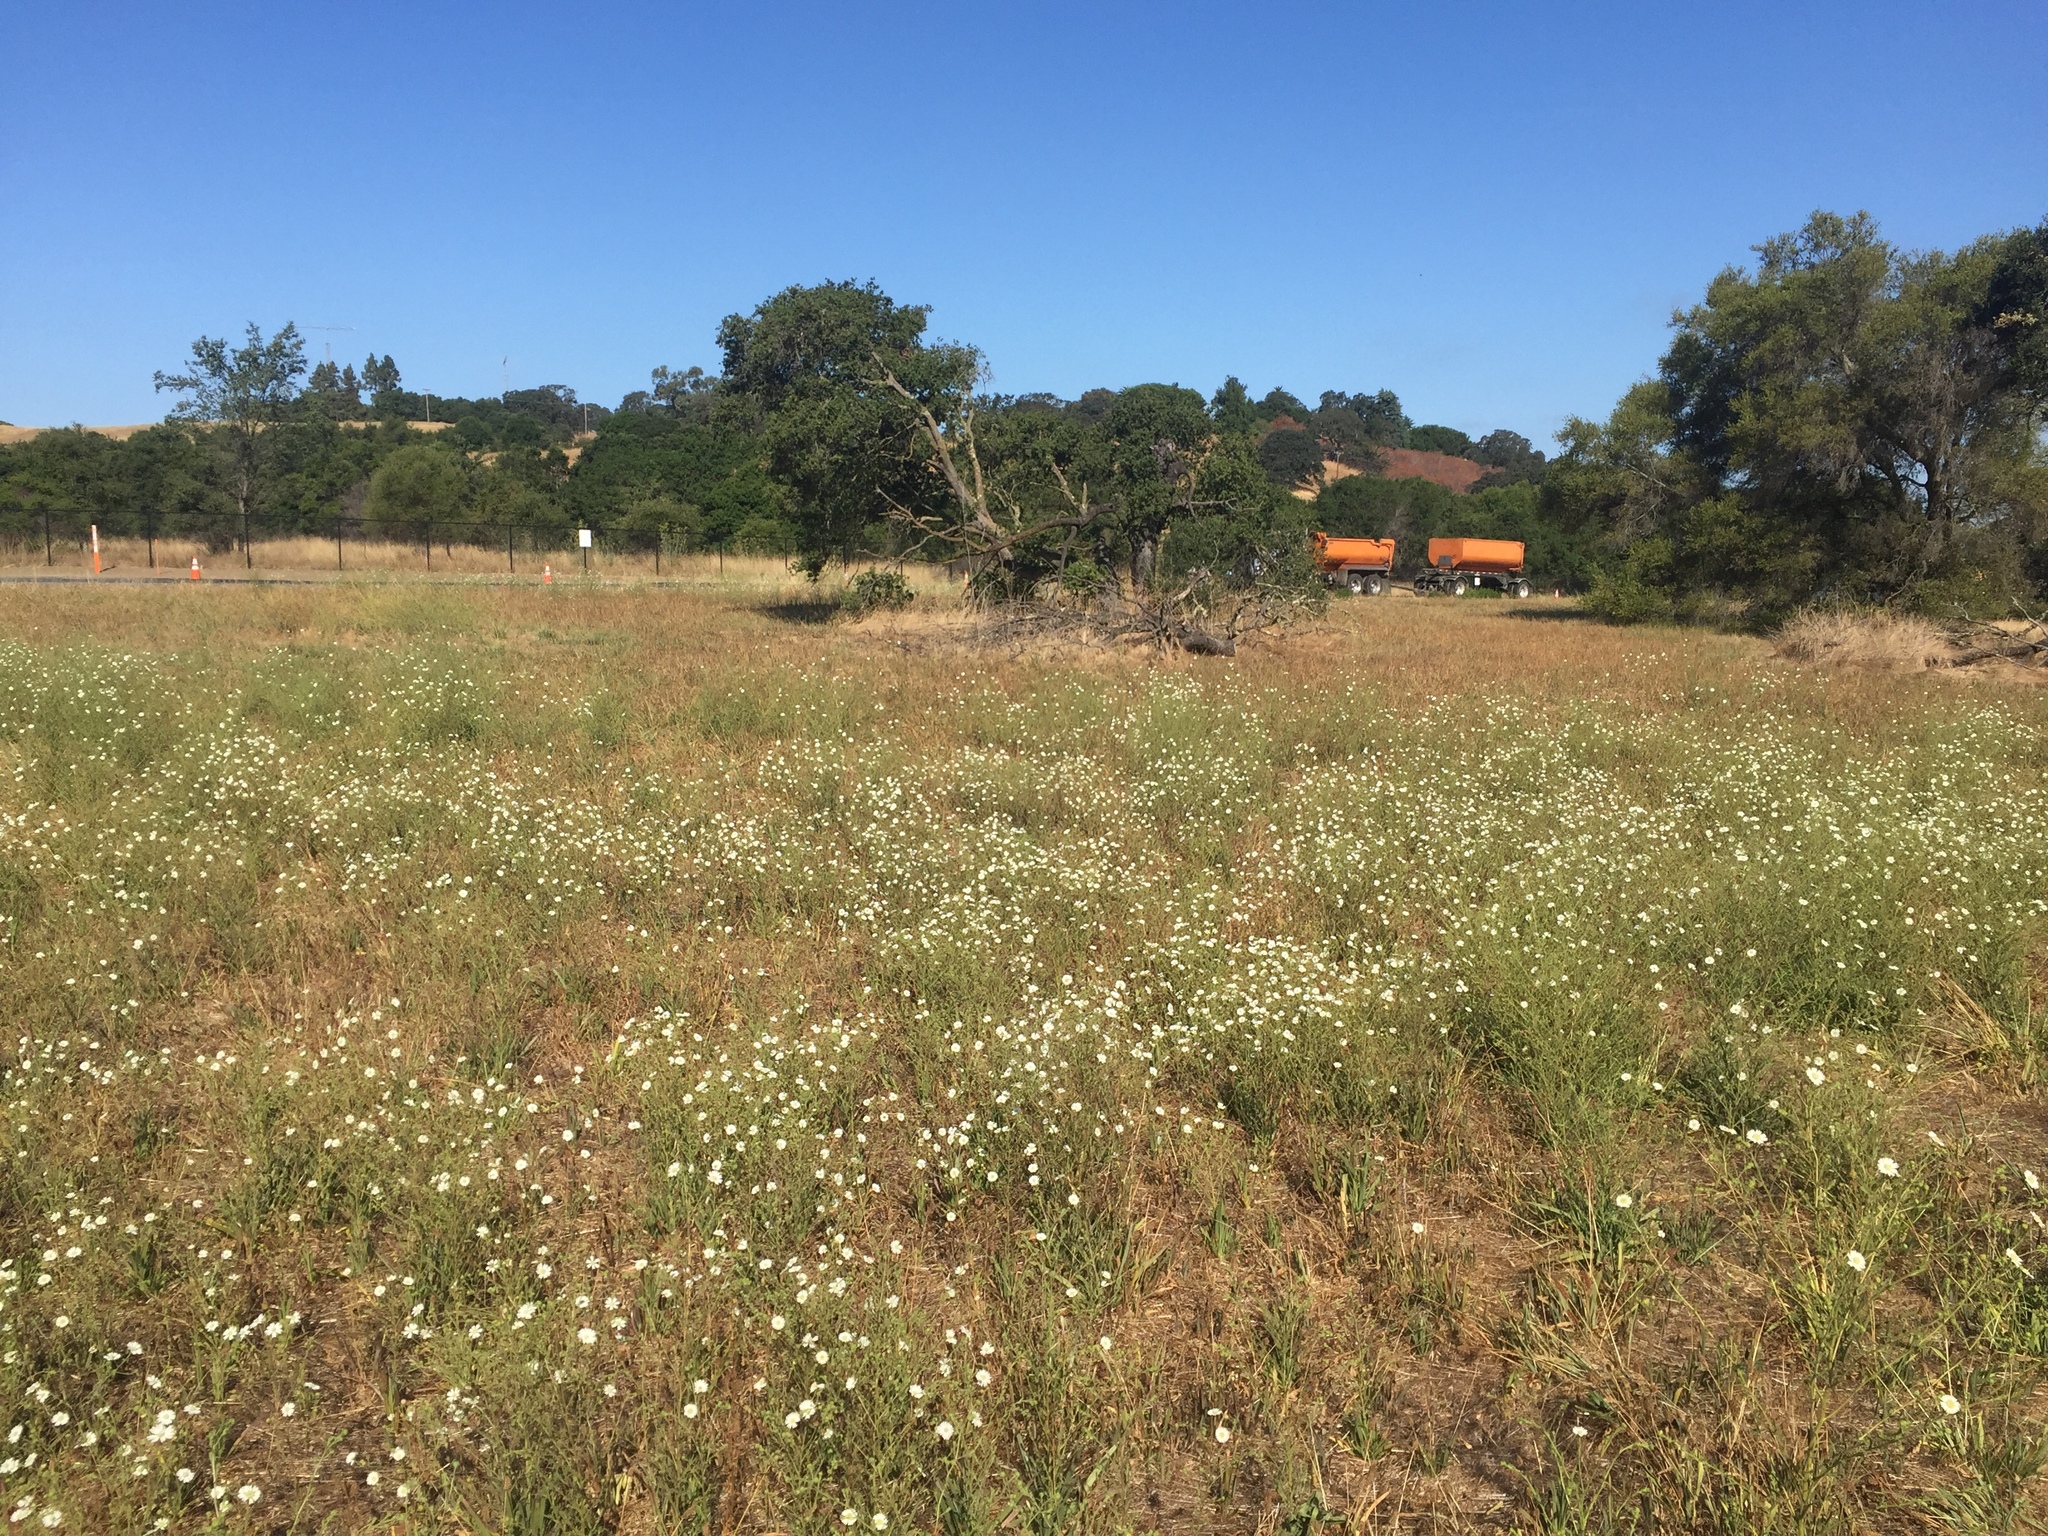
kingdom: Plantae
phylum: Tracheophyta
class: Magnoliopsida
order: Asterales
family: Asteraceae
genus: Hemizonia
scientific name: Hemizonia congesta
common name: Hayfield tarweed
